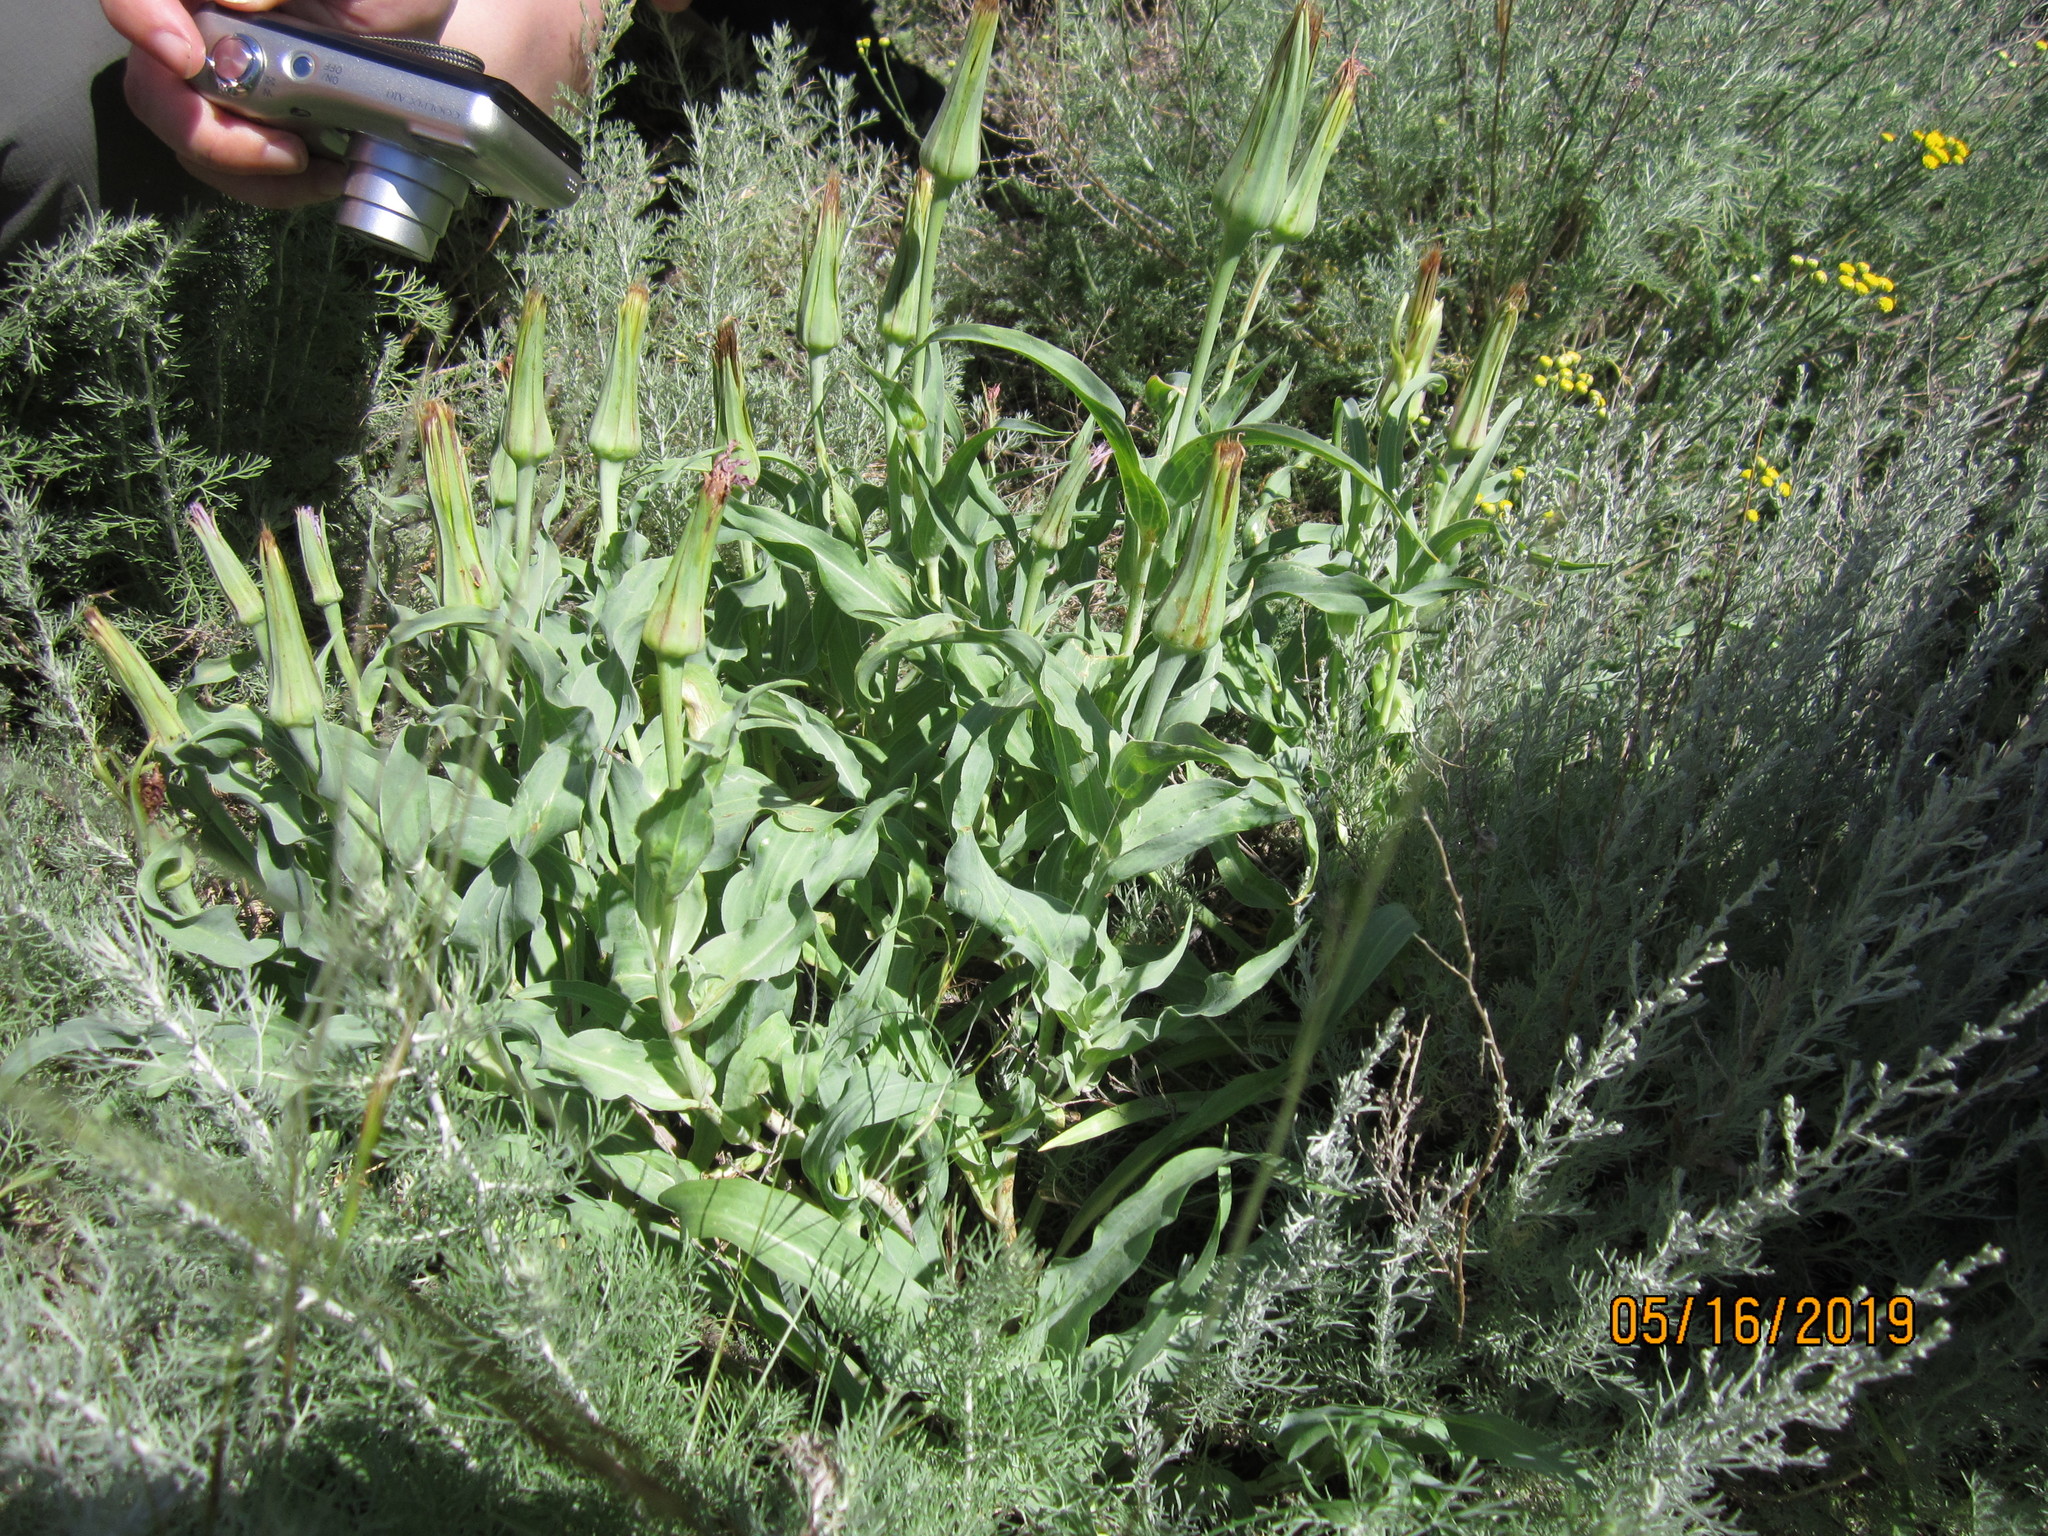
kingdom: Plantae
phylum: Tracheophyta
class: Magnoliopsida
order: Asterales
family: Asteraceae
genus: Tragopogon
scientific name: Tragopogon marginifolius
